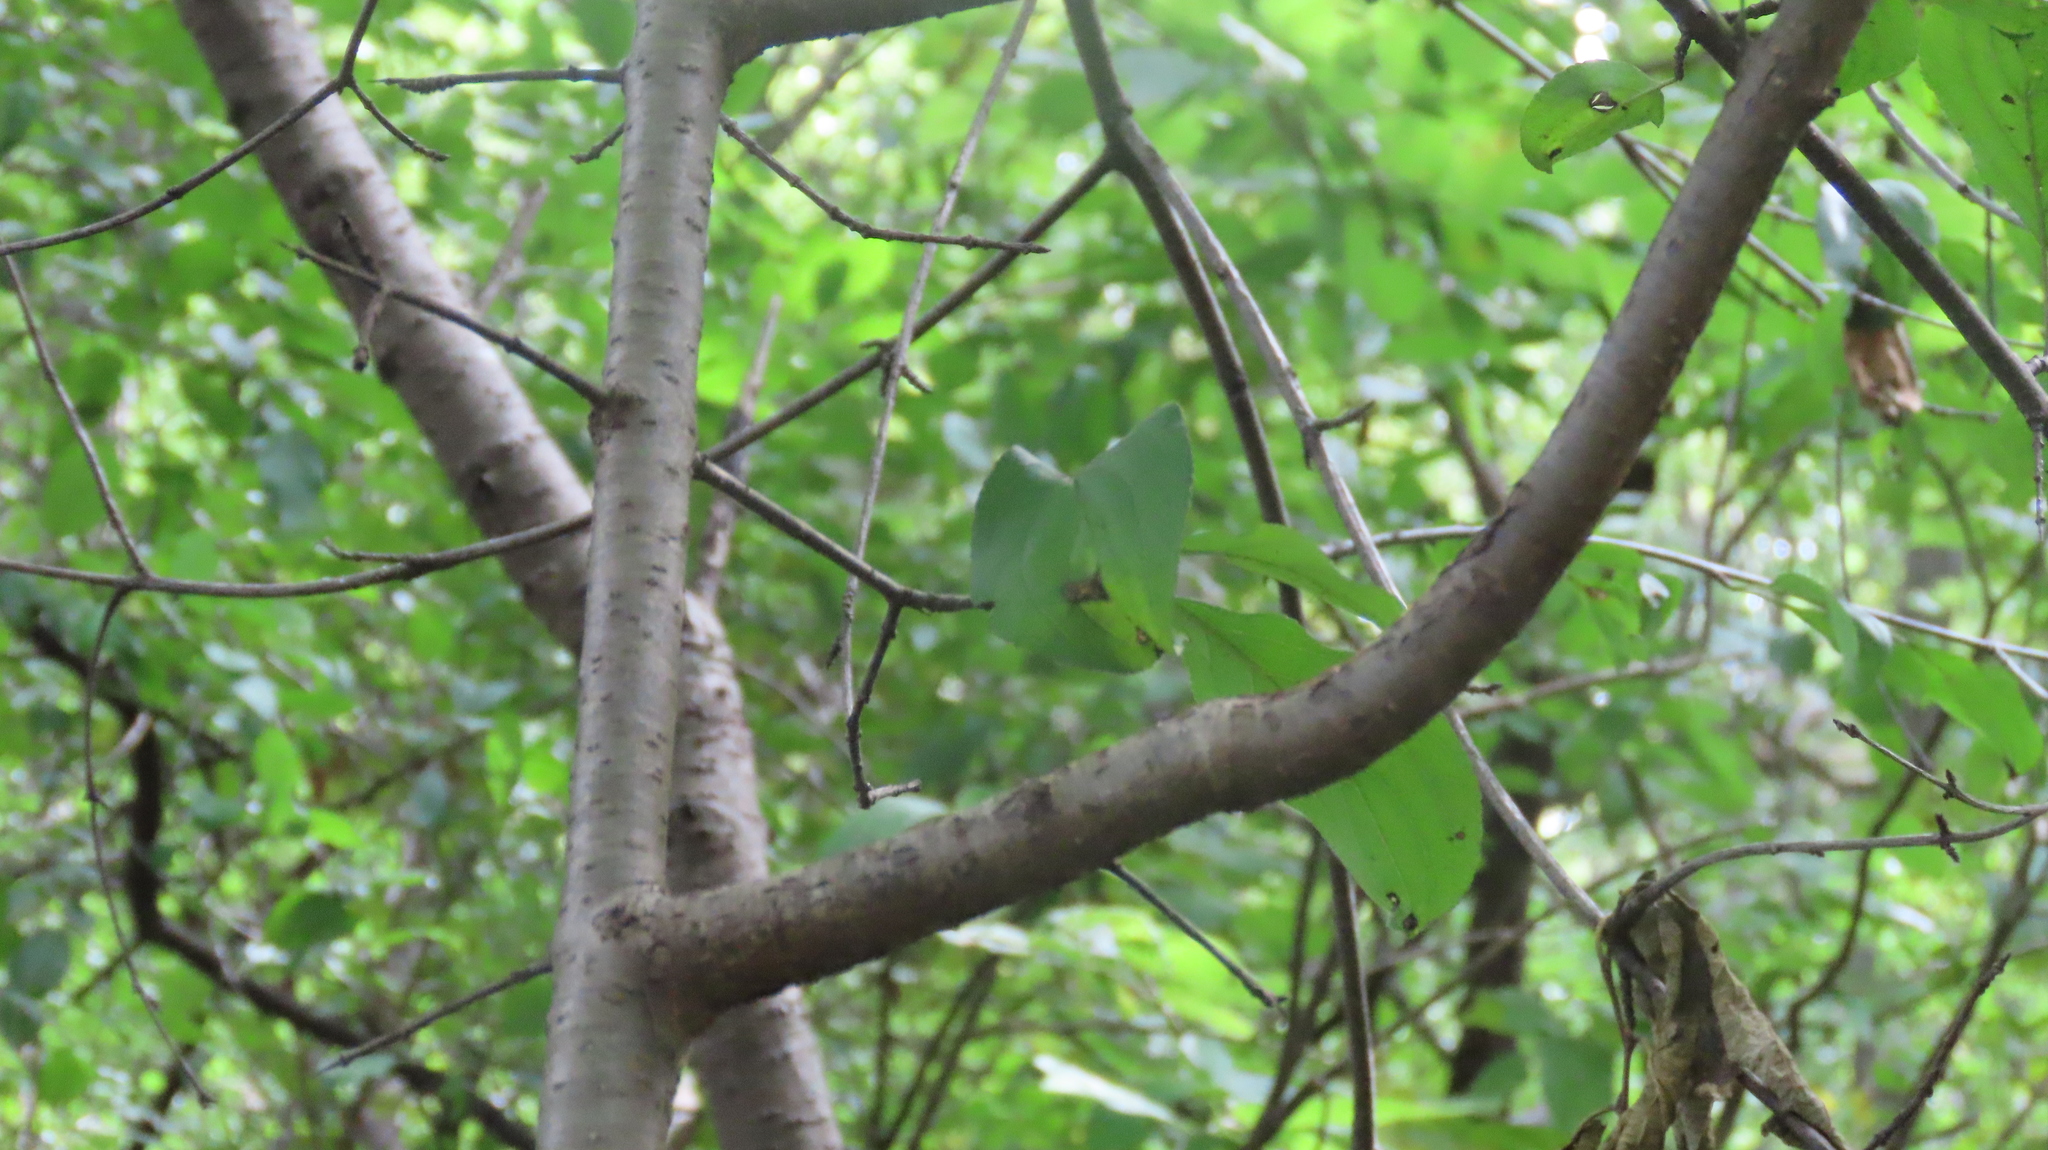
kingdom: Plantae
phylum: Tracheophyta
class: Magnoliopsida
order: Rosales
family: Rhamnaceae
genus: Rhamnus
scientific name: Rhamnus cathartica
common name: Common buckthorn
